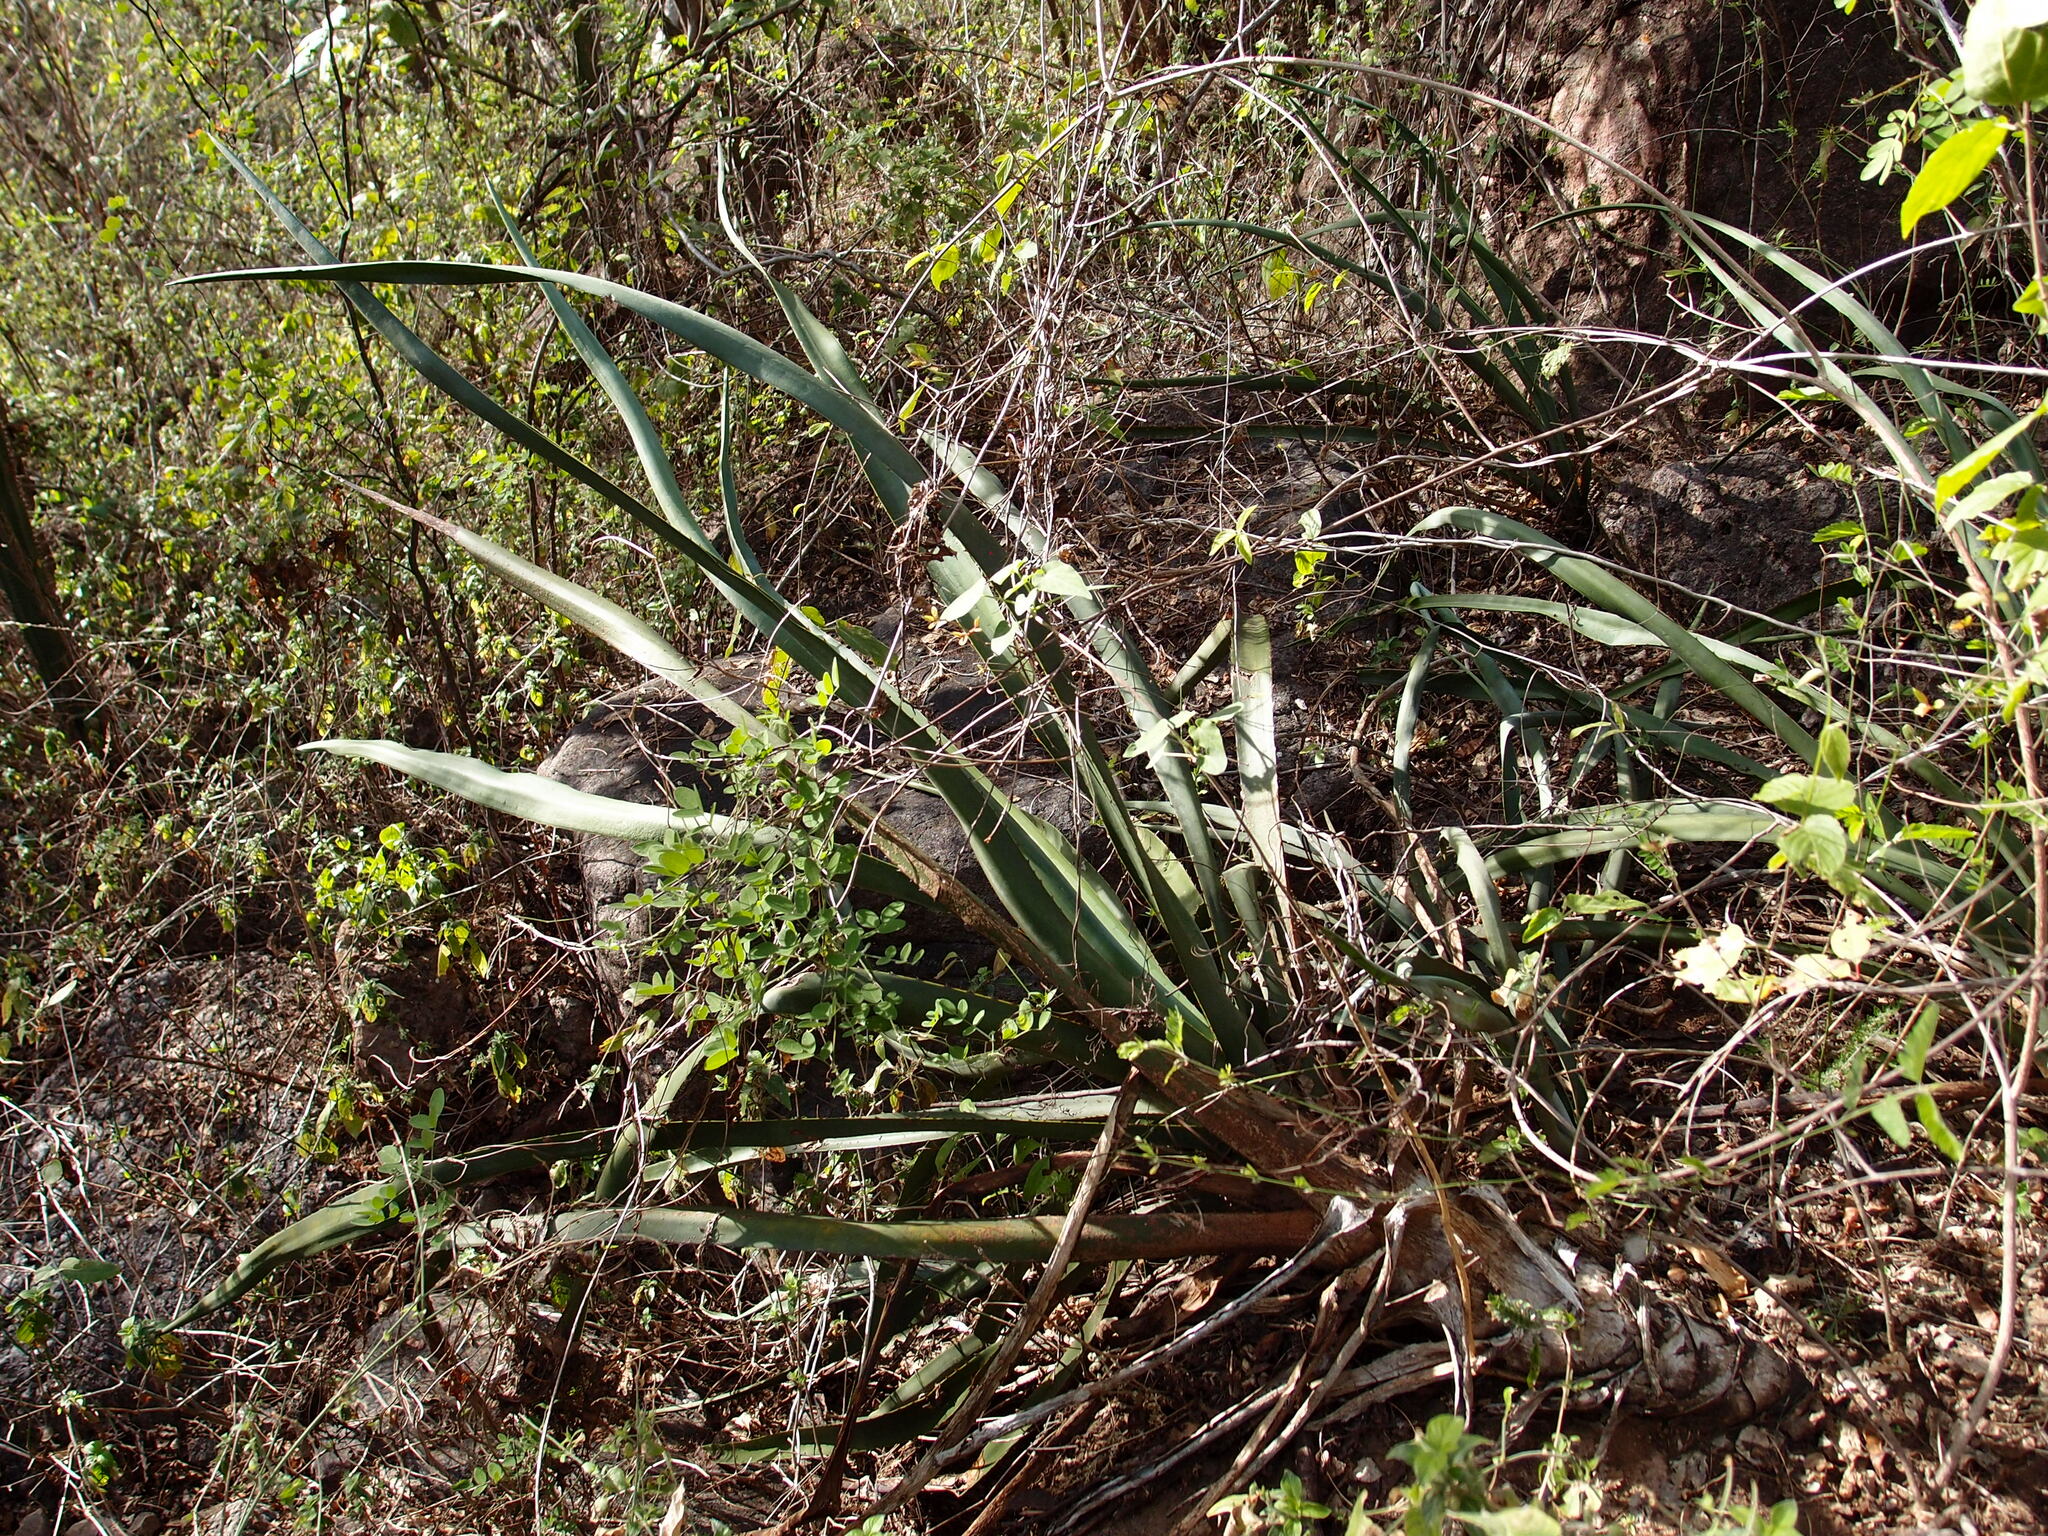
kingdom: Plantae
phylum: Tracheophyta
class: Liliopsida
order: Asparagales
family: Asparagaceae
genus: Agave
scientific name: Agave angustifolia
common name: Mescal agave
